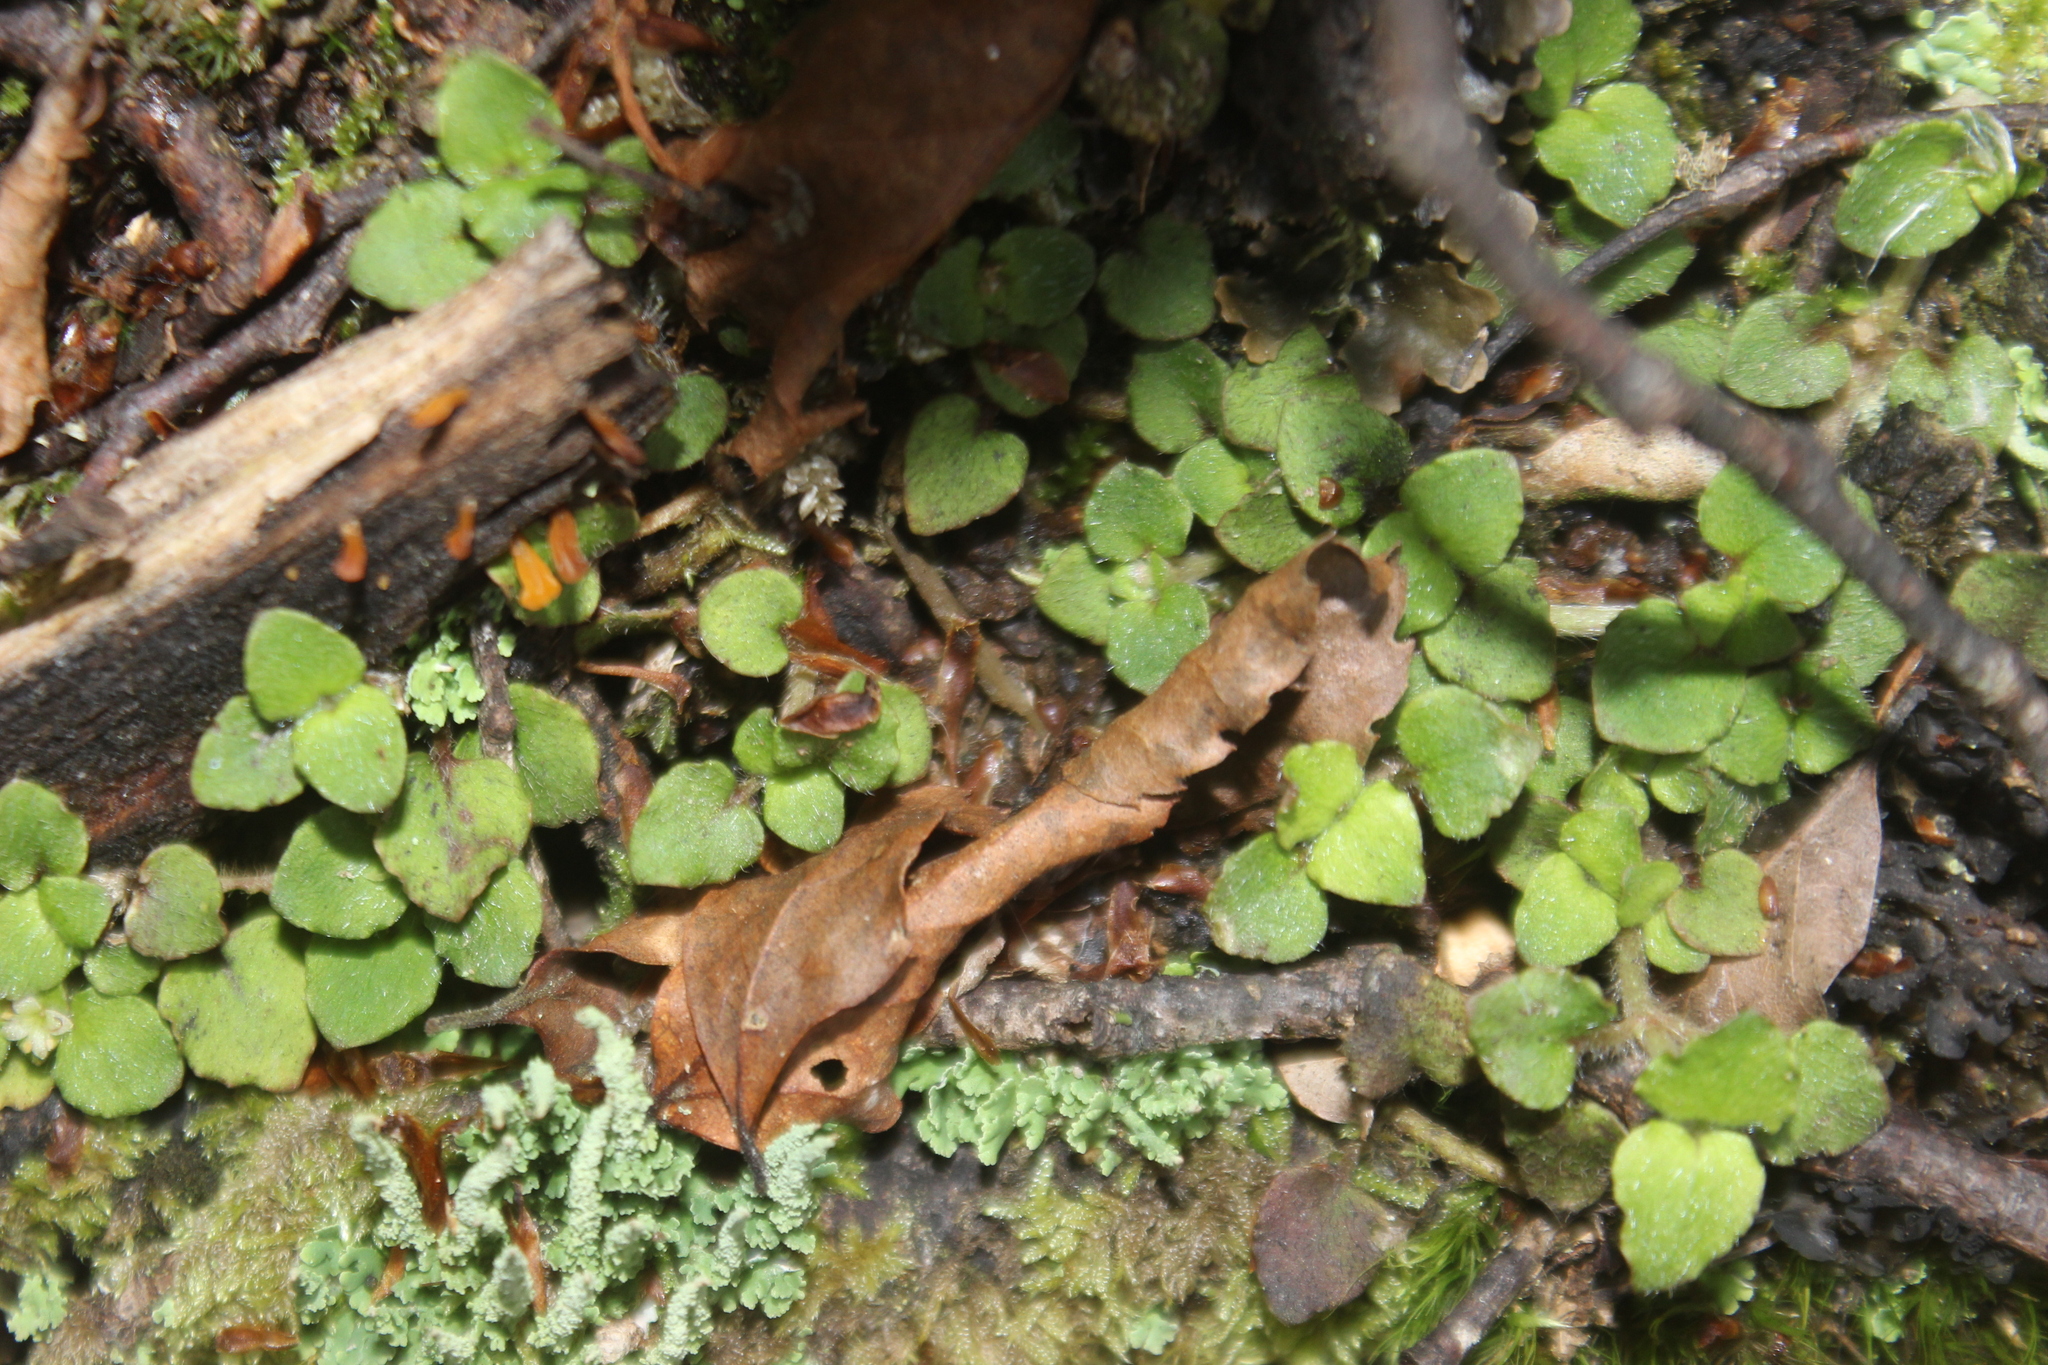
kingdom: Plantae
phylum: Tracheophyta
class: Magnoliopsida
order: Gentianales
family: Rubiaceae
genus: Nertera
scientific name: Nertera villosa
